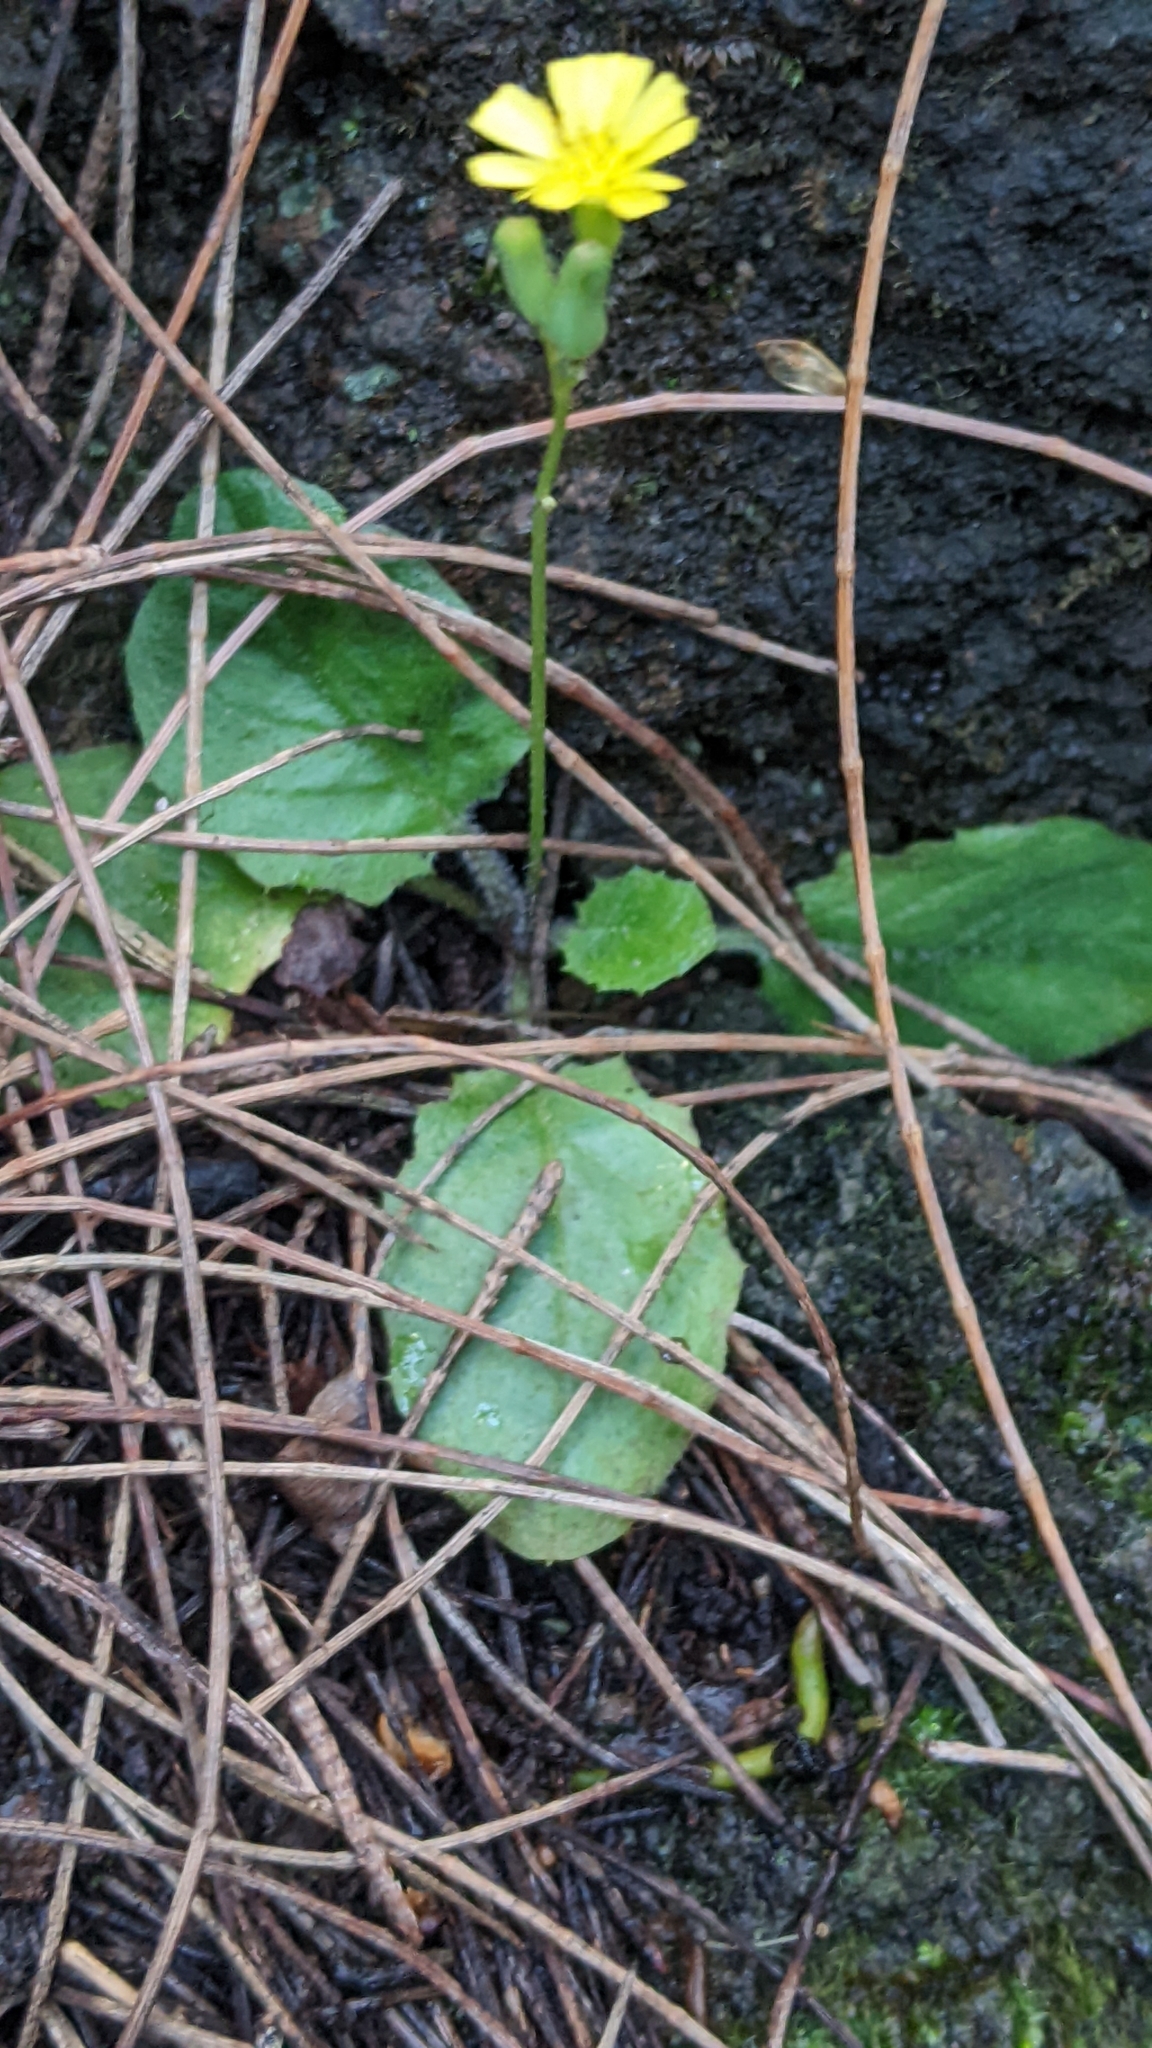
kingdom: Plantae
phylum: Tracheophyta
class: Magnoliopsida
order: Asterales
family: Asteraceae
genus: Youngia
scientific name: Youngia japonica
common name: Oriental false hawksbeard
